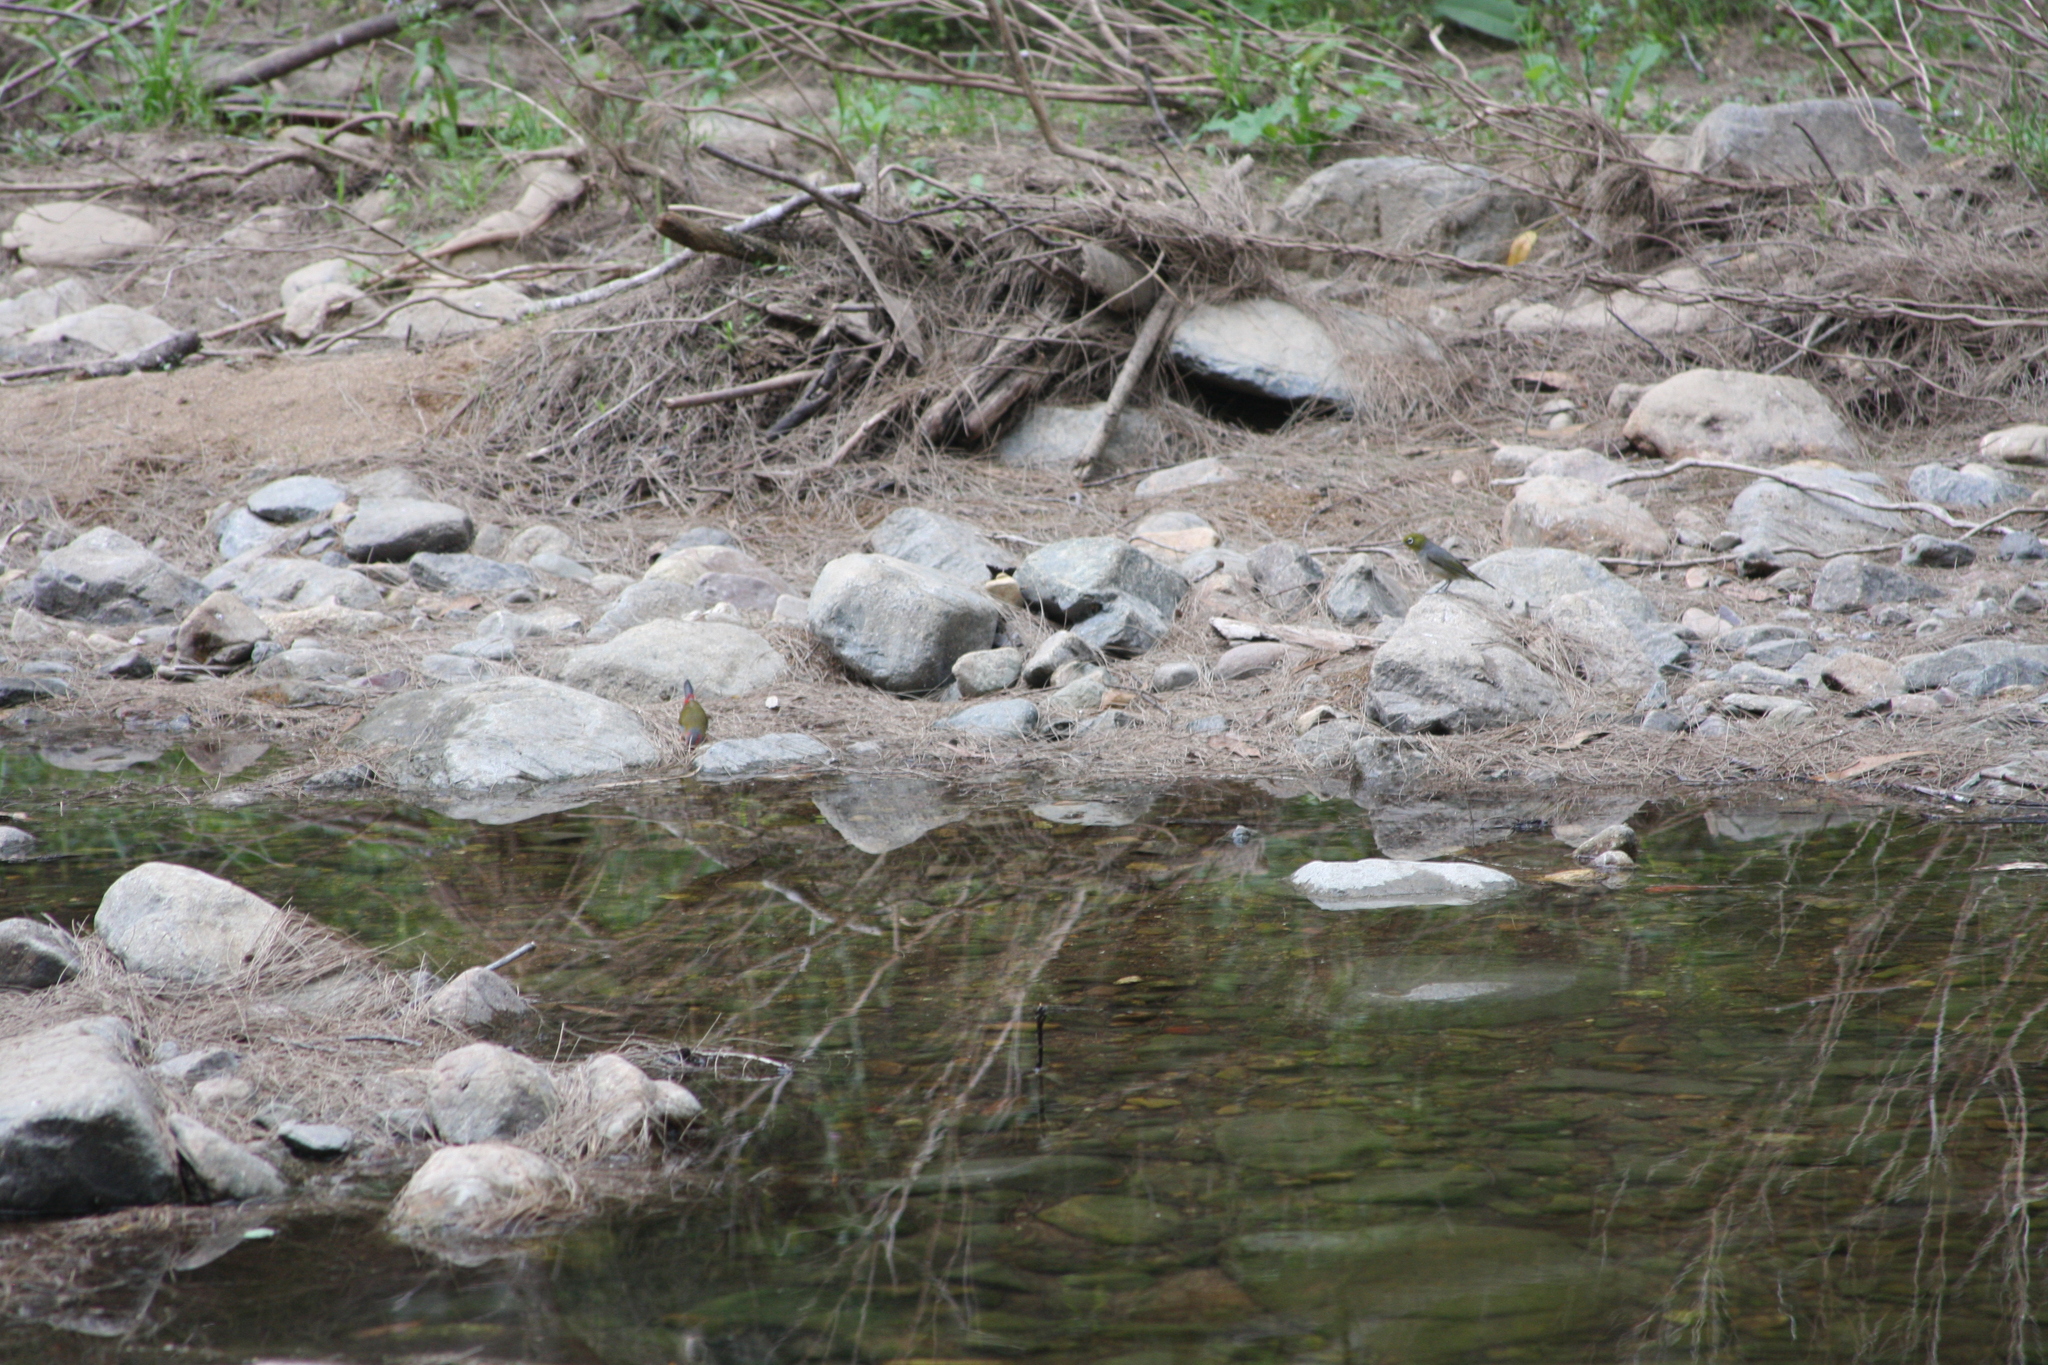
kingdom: Animalia
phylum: Chordata
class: Aves
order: Passeriformes
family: Estrildidae
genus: Neochmia
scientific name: Neochmia temporalis
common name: Red-browed finch
